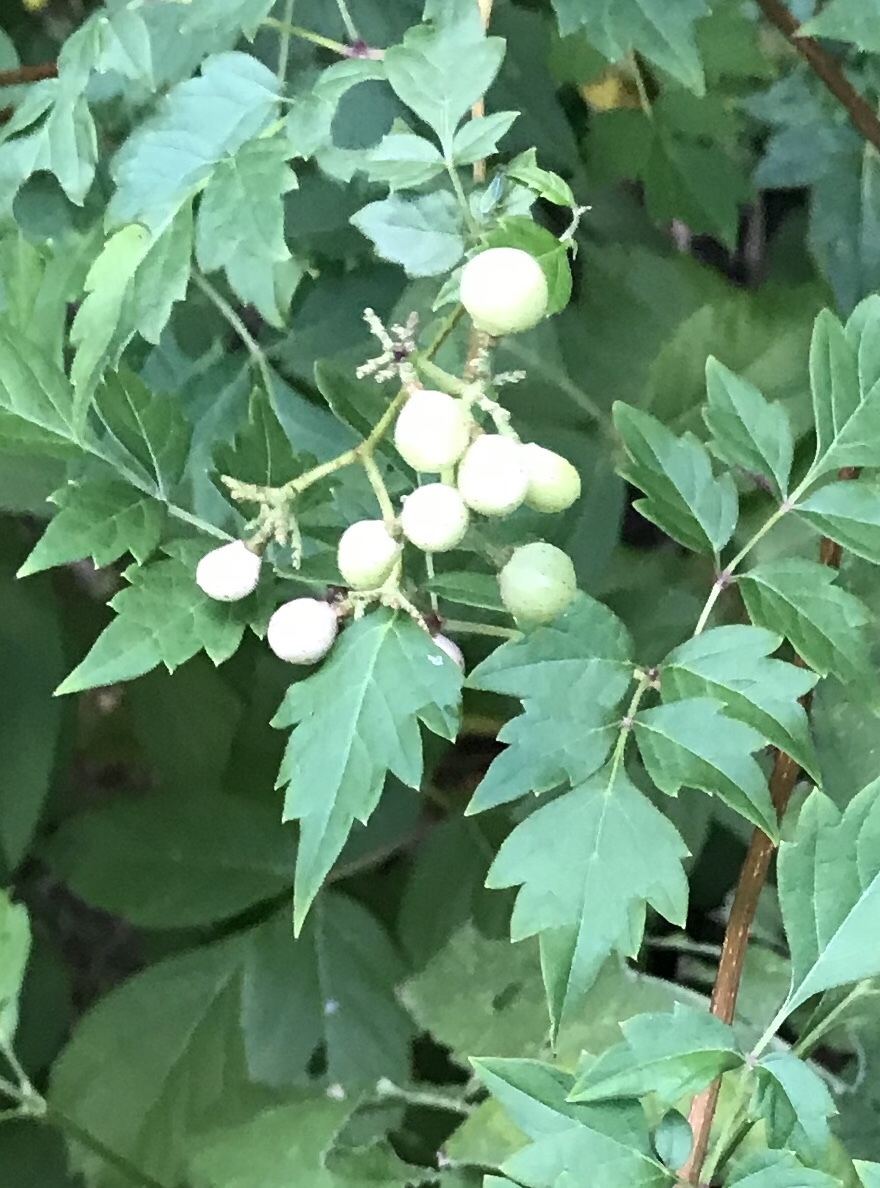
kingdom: Plantae
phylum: Tracheophyta
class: Magnoliopsida
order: Vitales
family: Vitaceae
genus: Nekemias
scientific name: Nekemias arborea
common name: Peppervine
